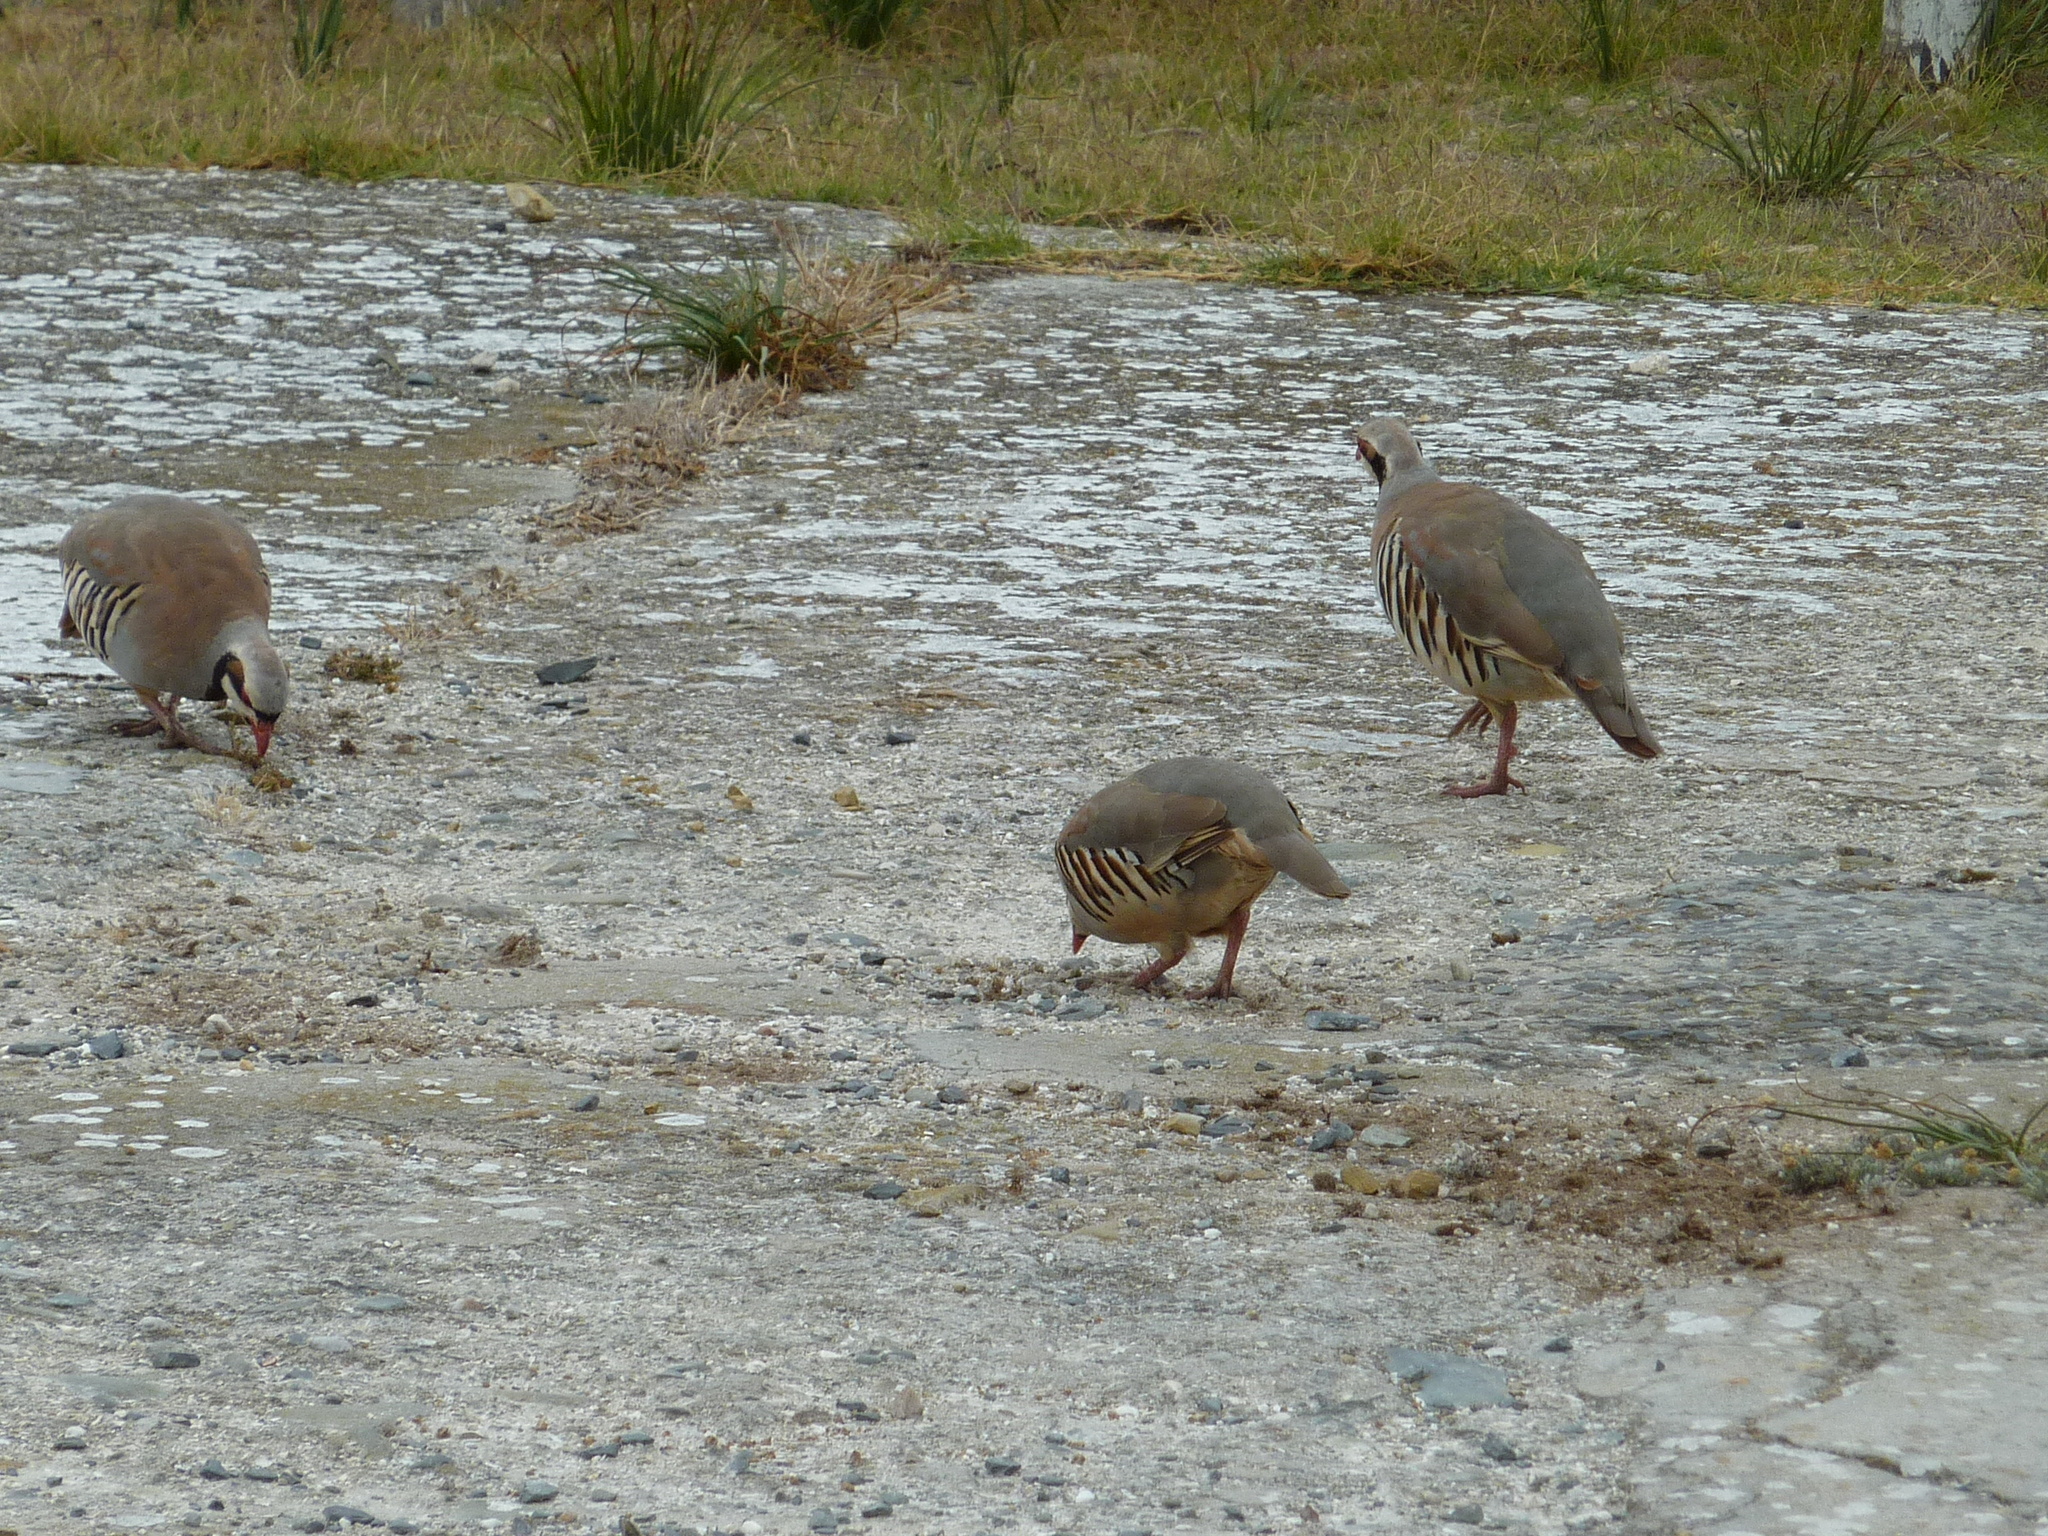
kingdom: Animalia
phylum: Chordata
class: Aves
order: Galliformes
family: Phasianidae
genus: Alectoris
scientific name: Alectoris chukar
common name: Chukar
